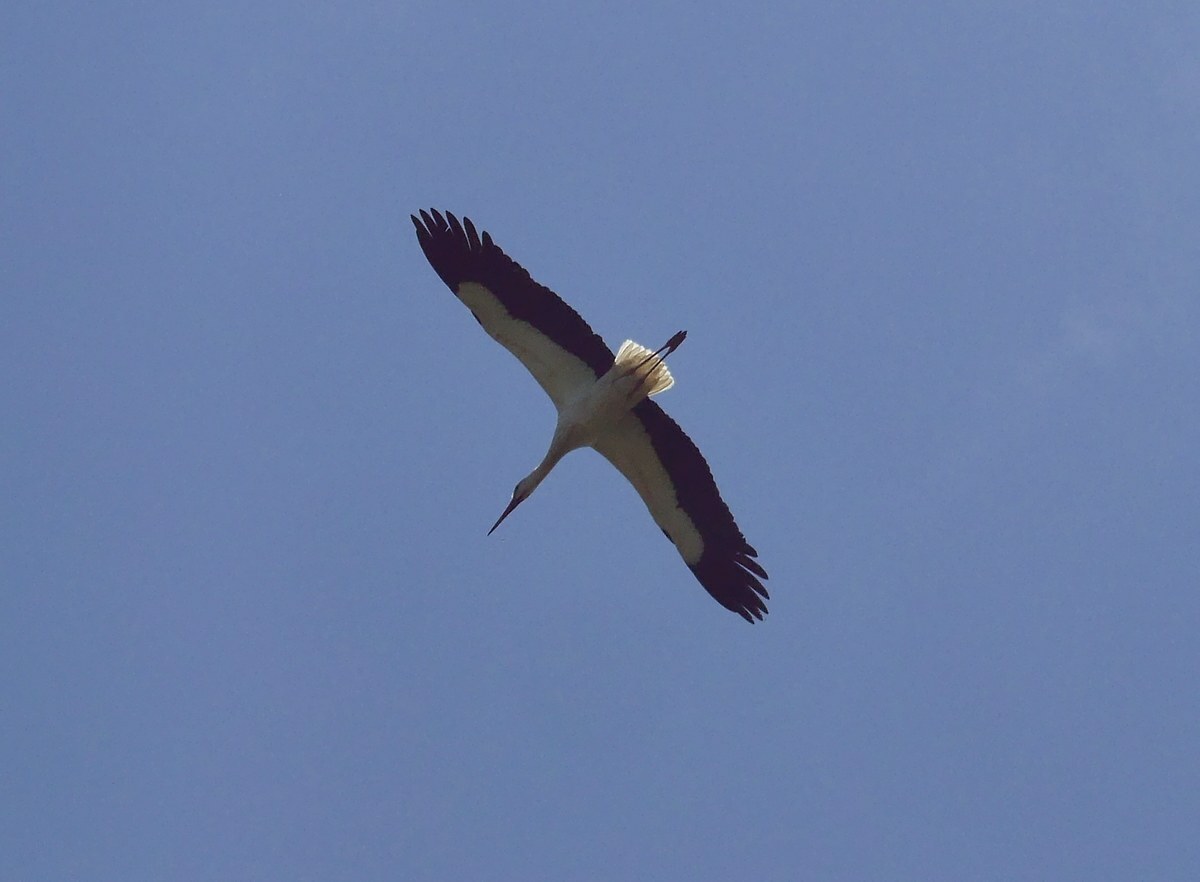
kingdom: Animalia
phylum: Chordata
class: Aves
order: Ciconiiformes
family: Ciconiidae
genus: Ciconia
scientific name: Ciconia ciconia
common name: White stork
